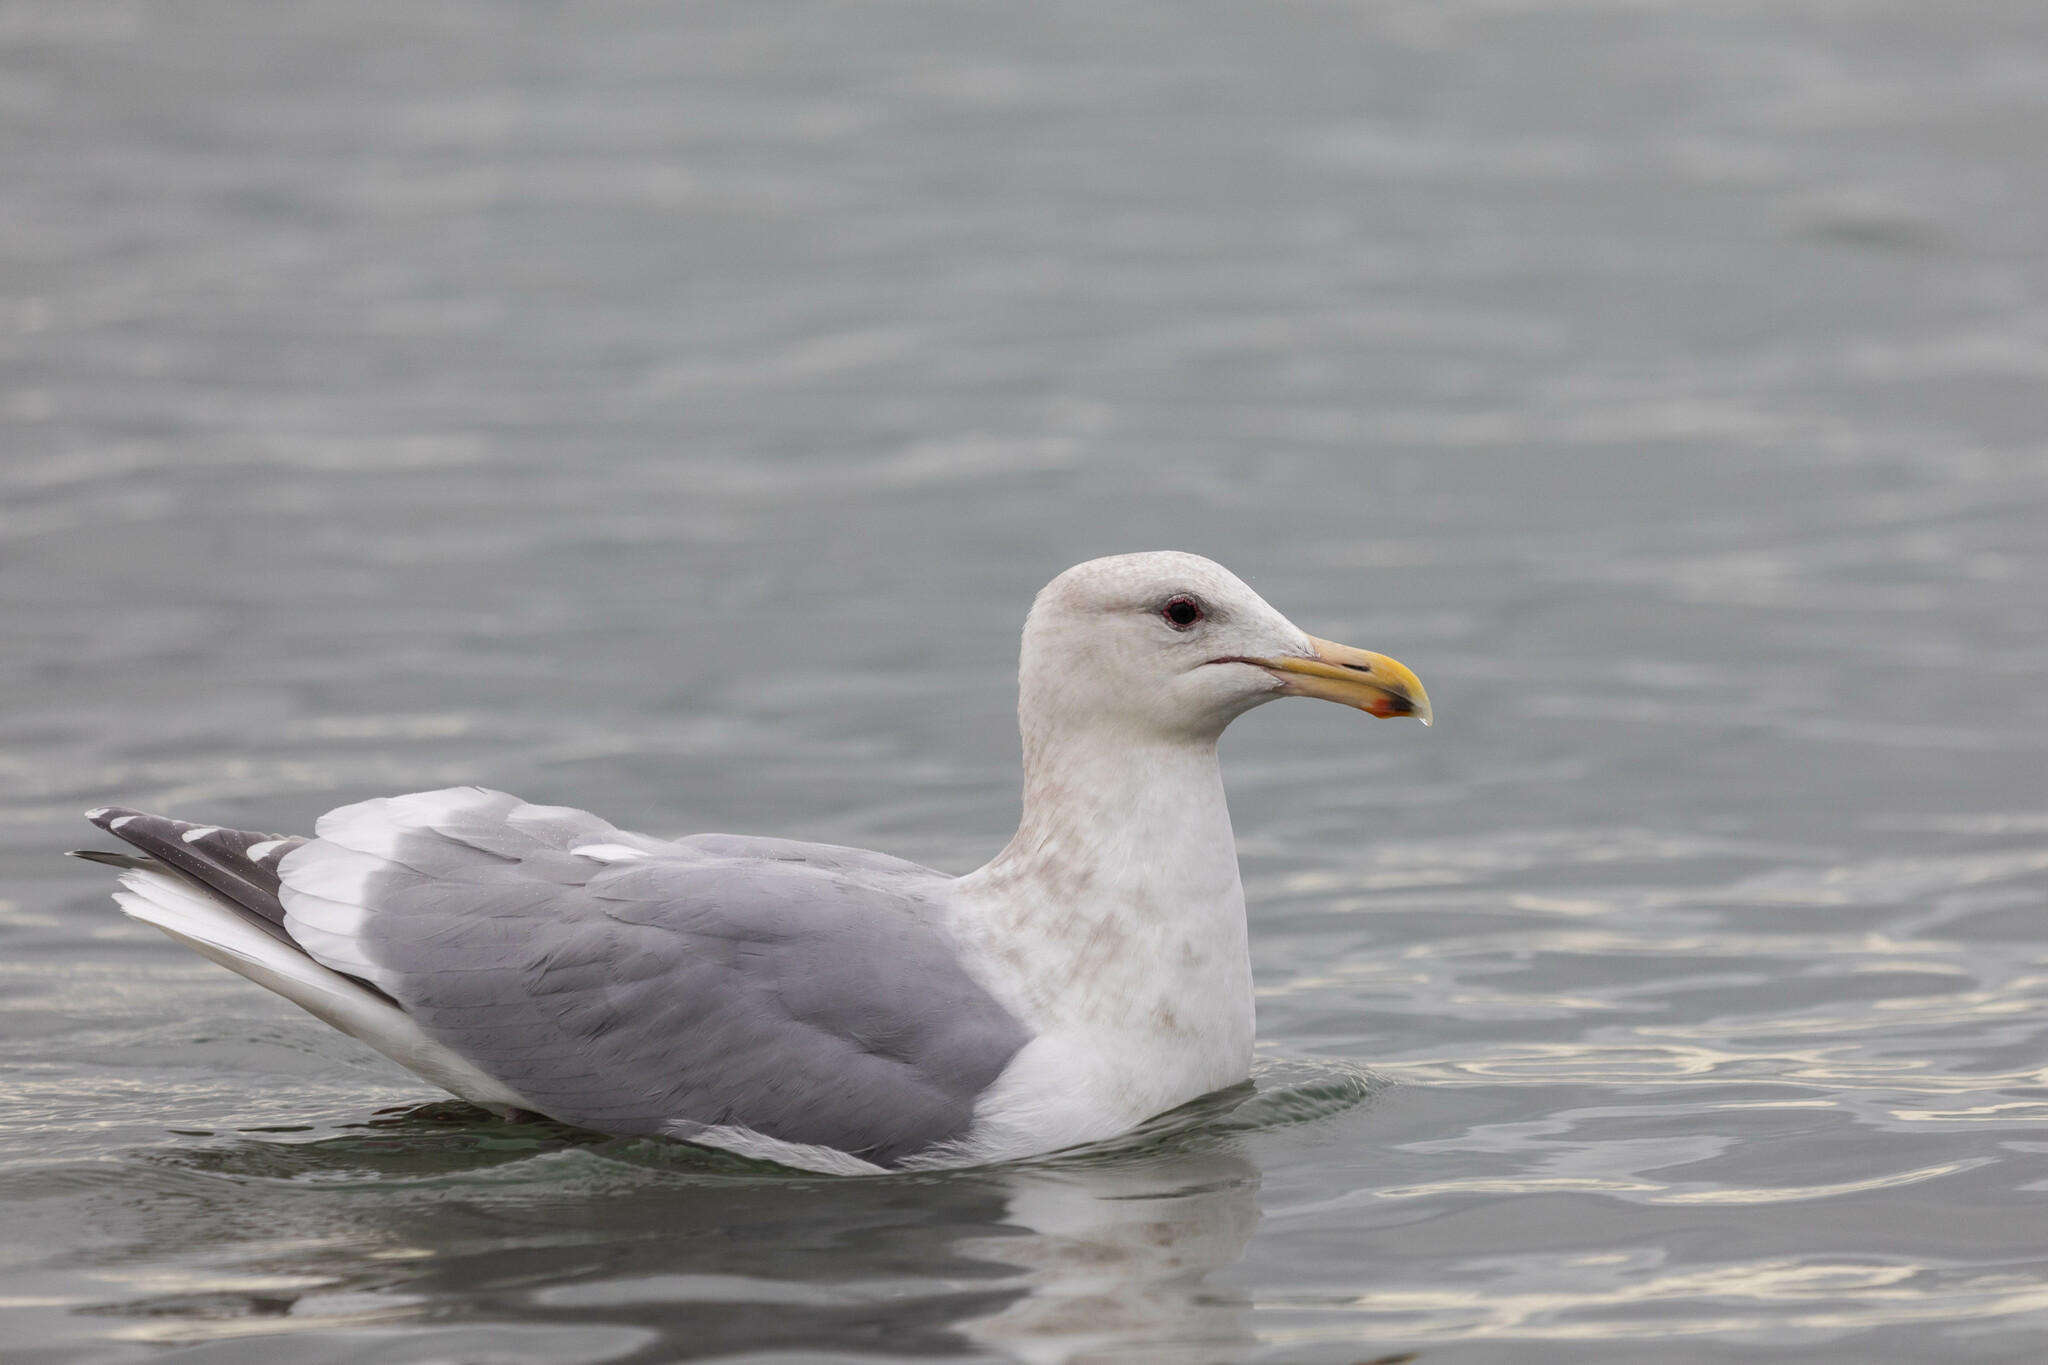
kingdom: Animalia
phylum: Chordata
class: Aves
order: Charadriiformes
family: Laridae
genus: Larus
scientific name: Larus
